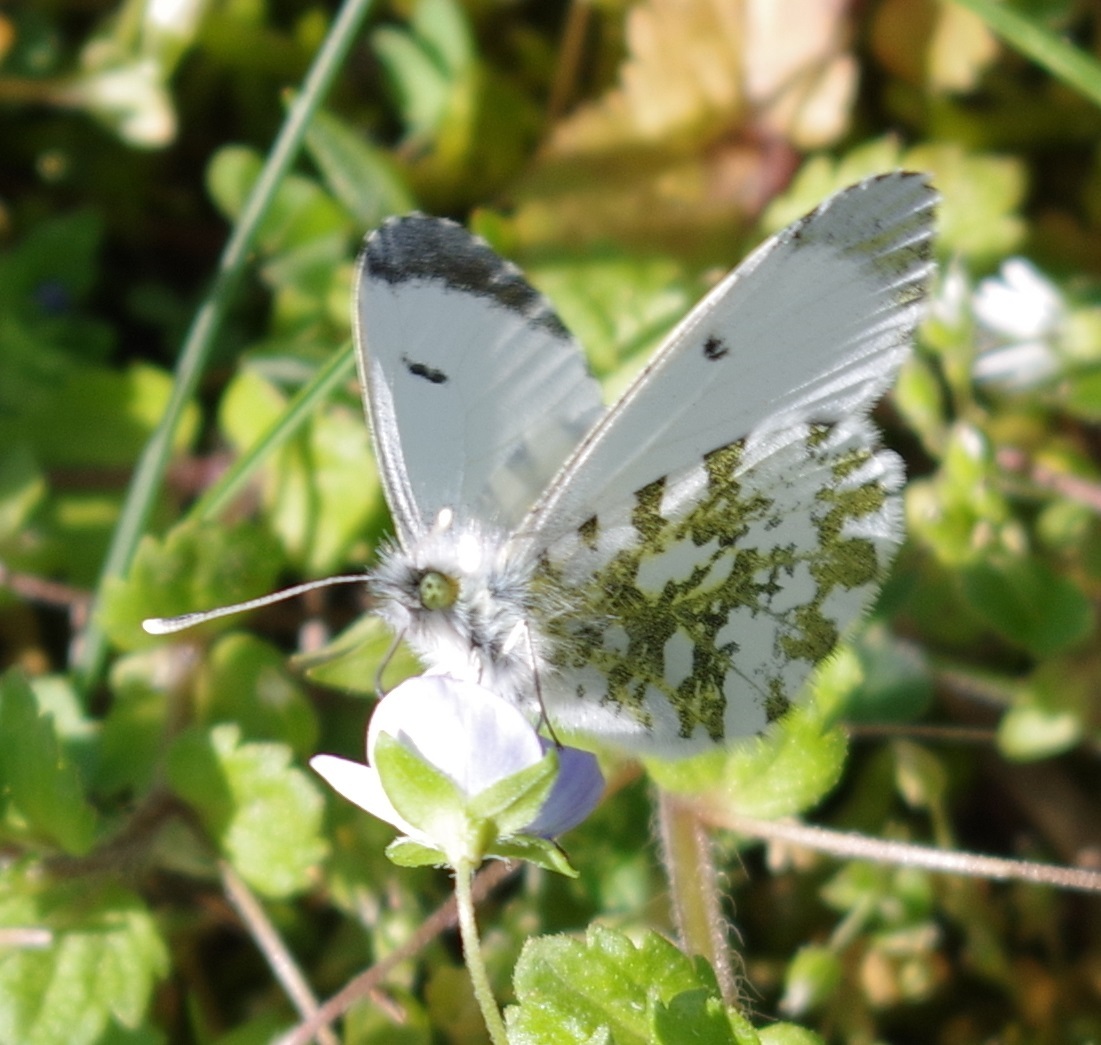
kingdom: Animalia
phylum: Arthropoda
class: Insecta
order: Lepidoptera
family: Pieridae
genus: Anthocharis
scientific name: Anthocharis cardamines
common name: Orange-tip
